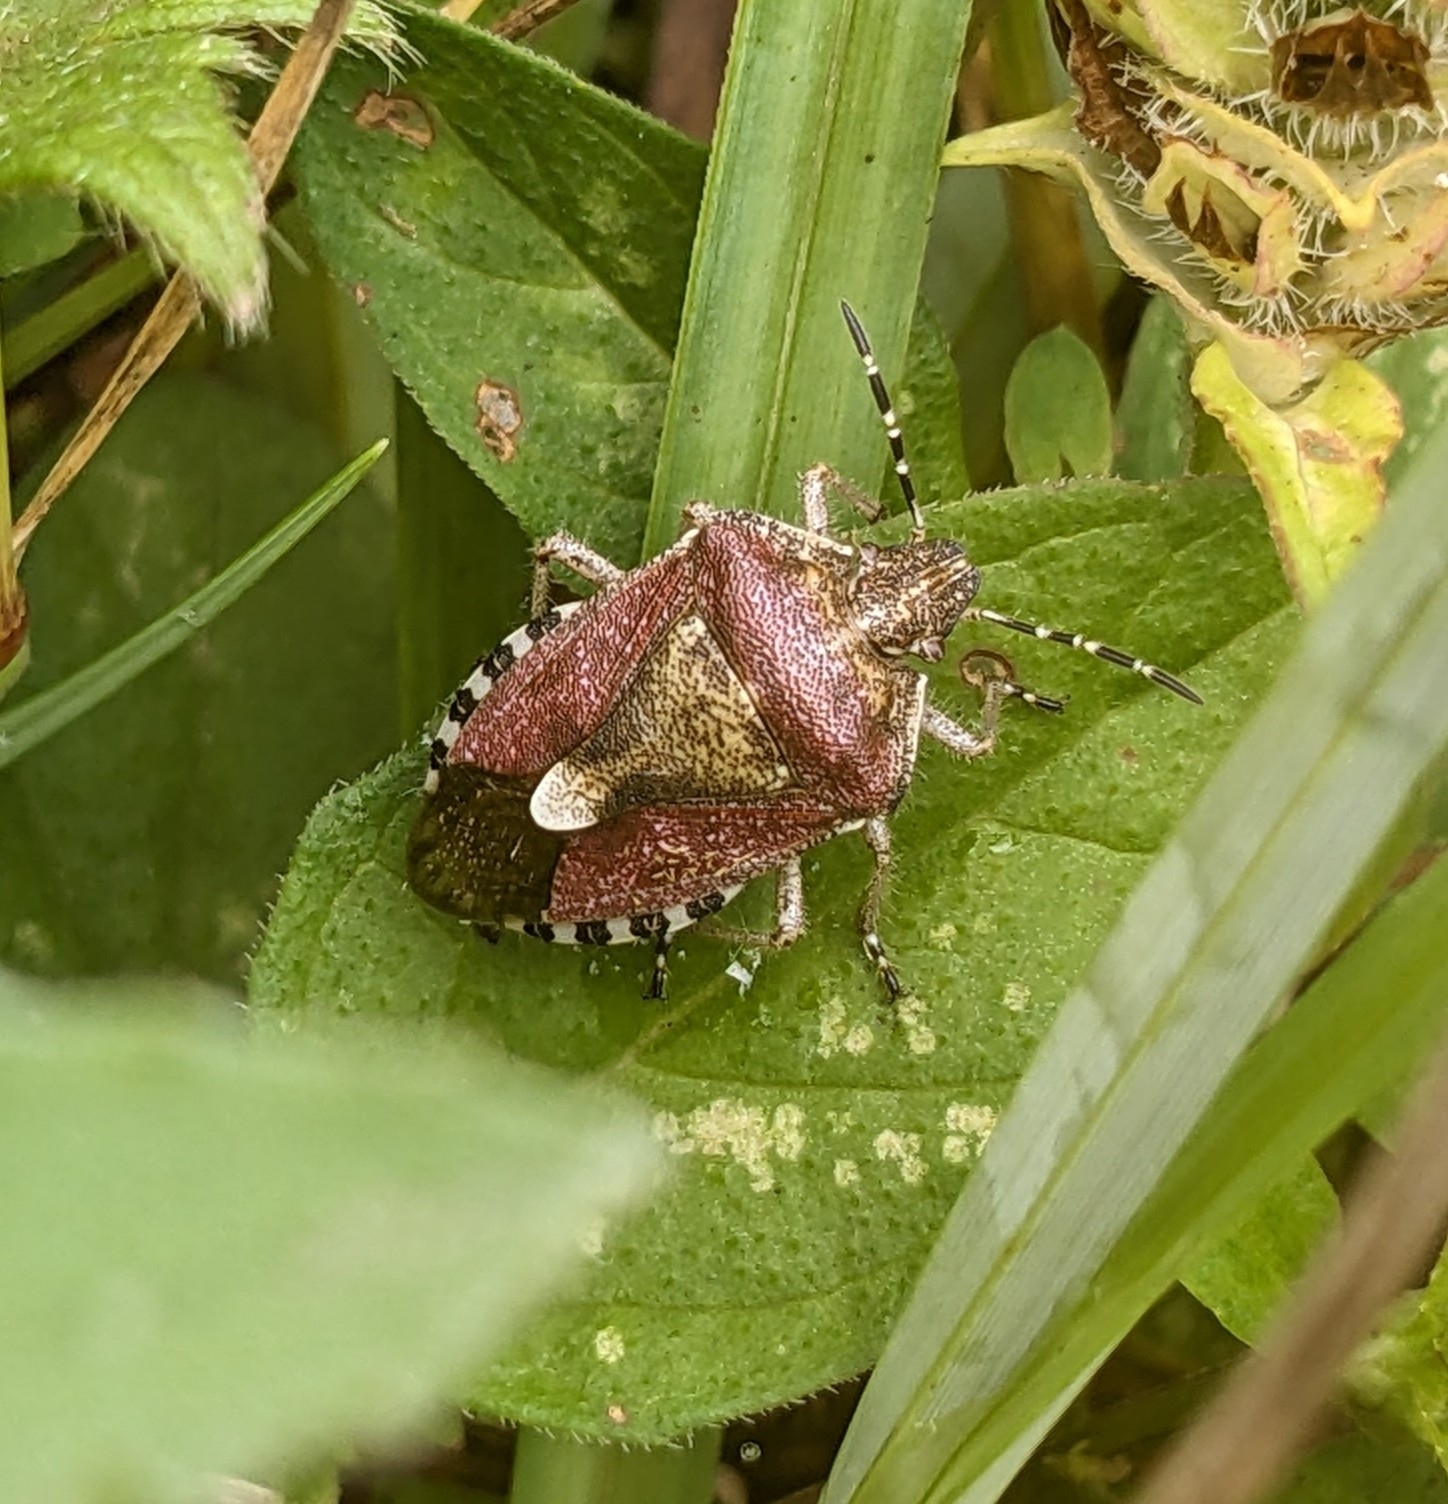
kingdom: Animalia
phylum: Arthropoda
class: Insecta
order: Hemiptera
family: Pentatomidae
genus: Dolycoris
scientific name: Dolycoris baccarum
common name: Sloe bug
